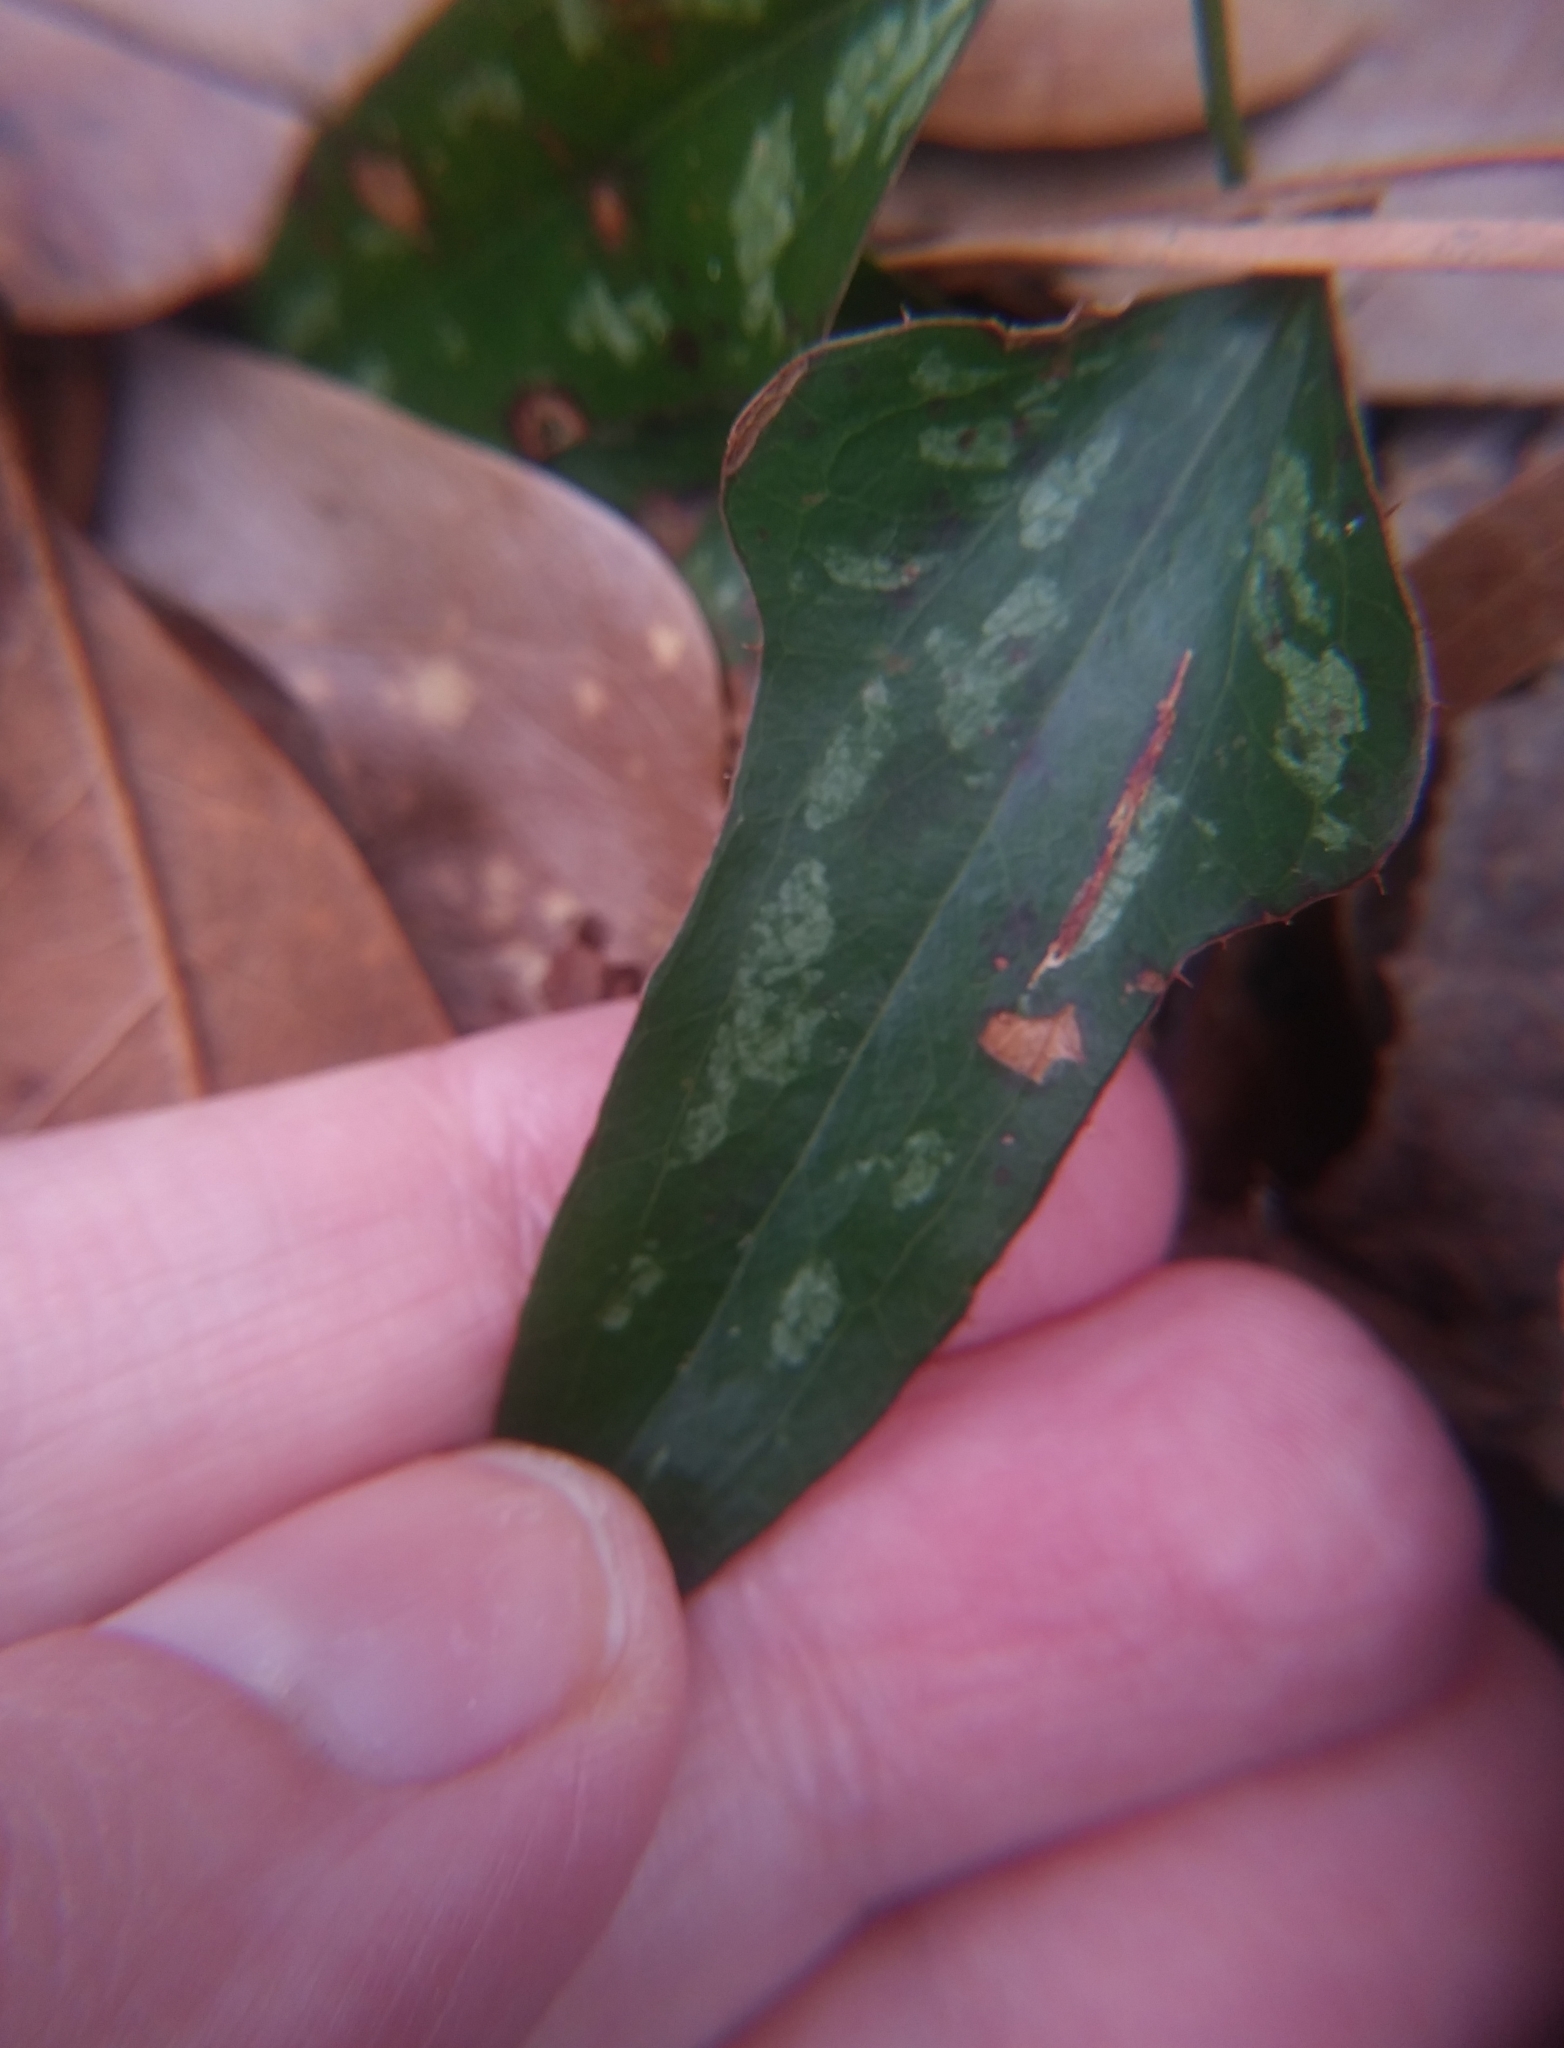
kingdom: Plantae
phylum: Tracheophyta
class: Liliopsida
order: Liliales
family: Smilacaceae
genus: Smilax
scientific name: Smilax bona-nox
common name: Catbrier
